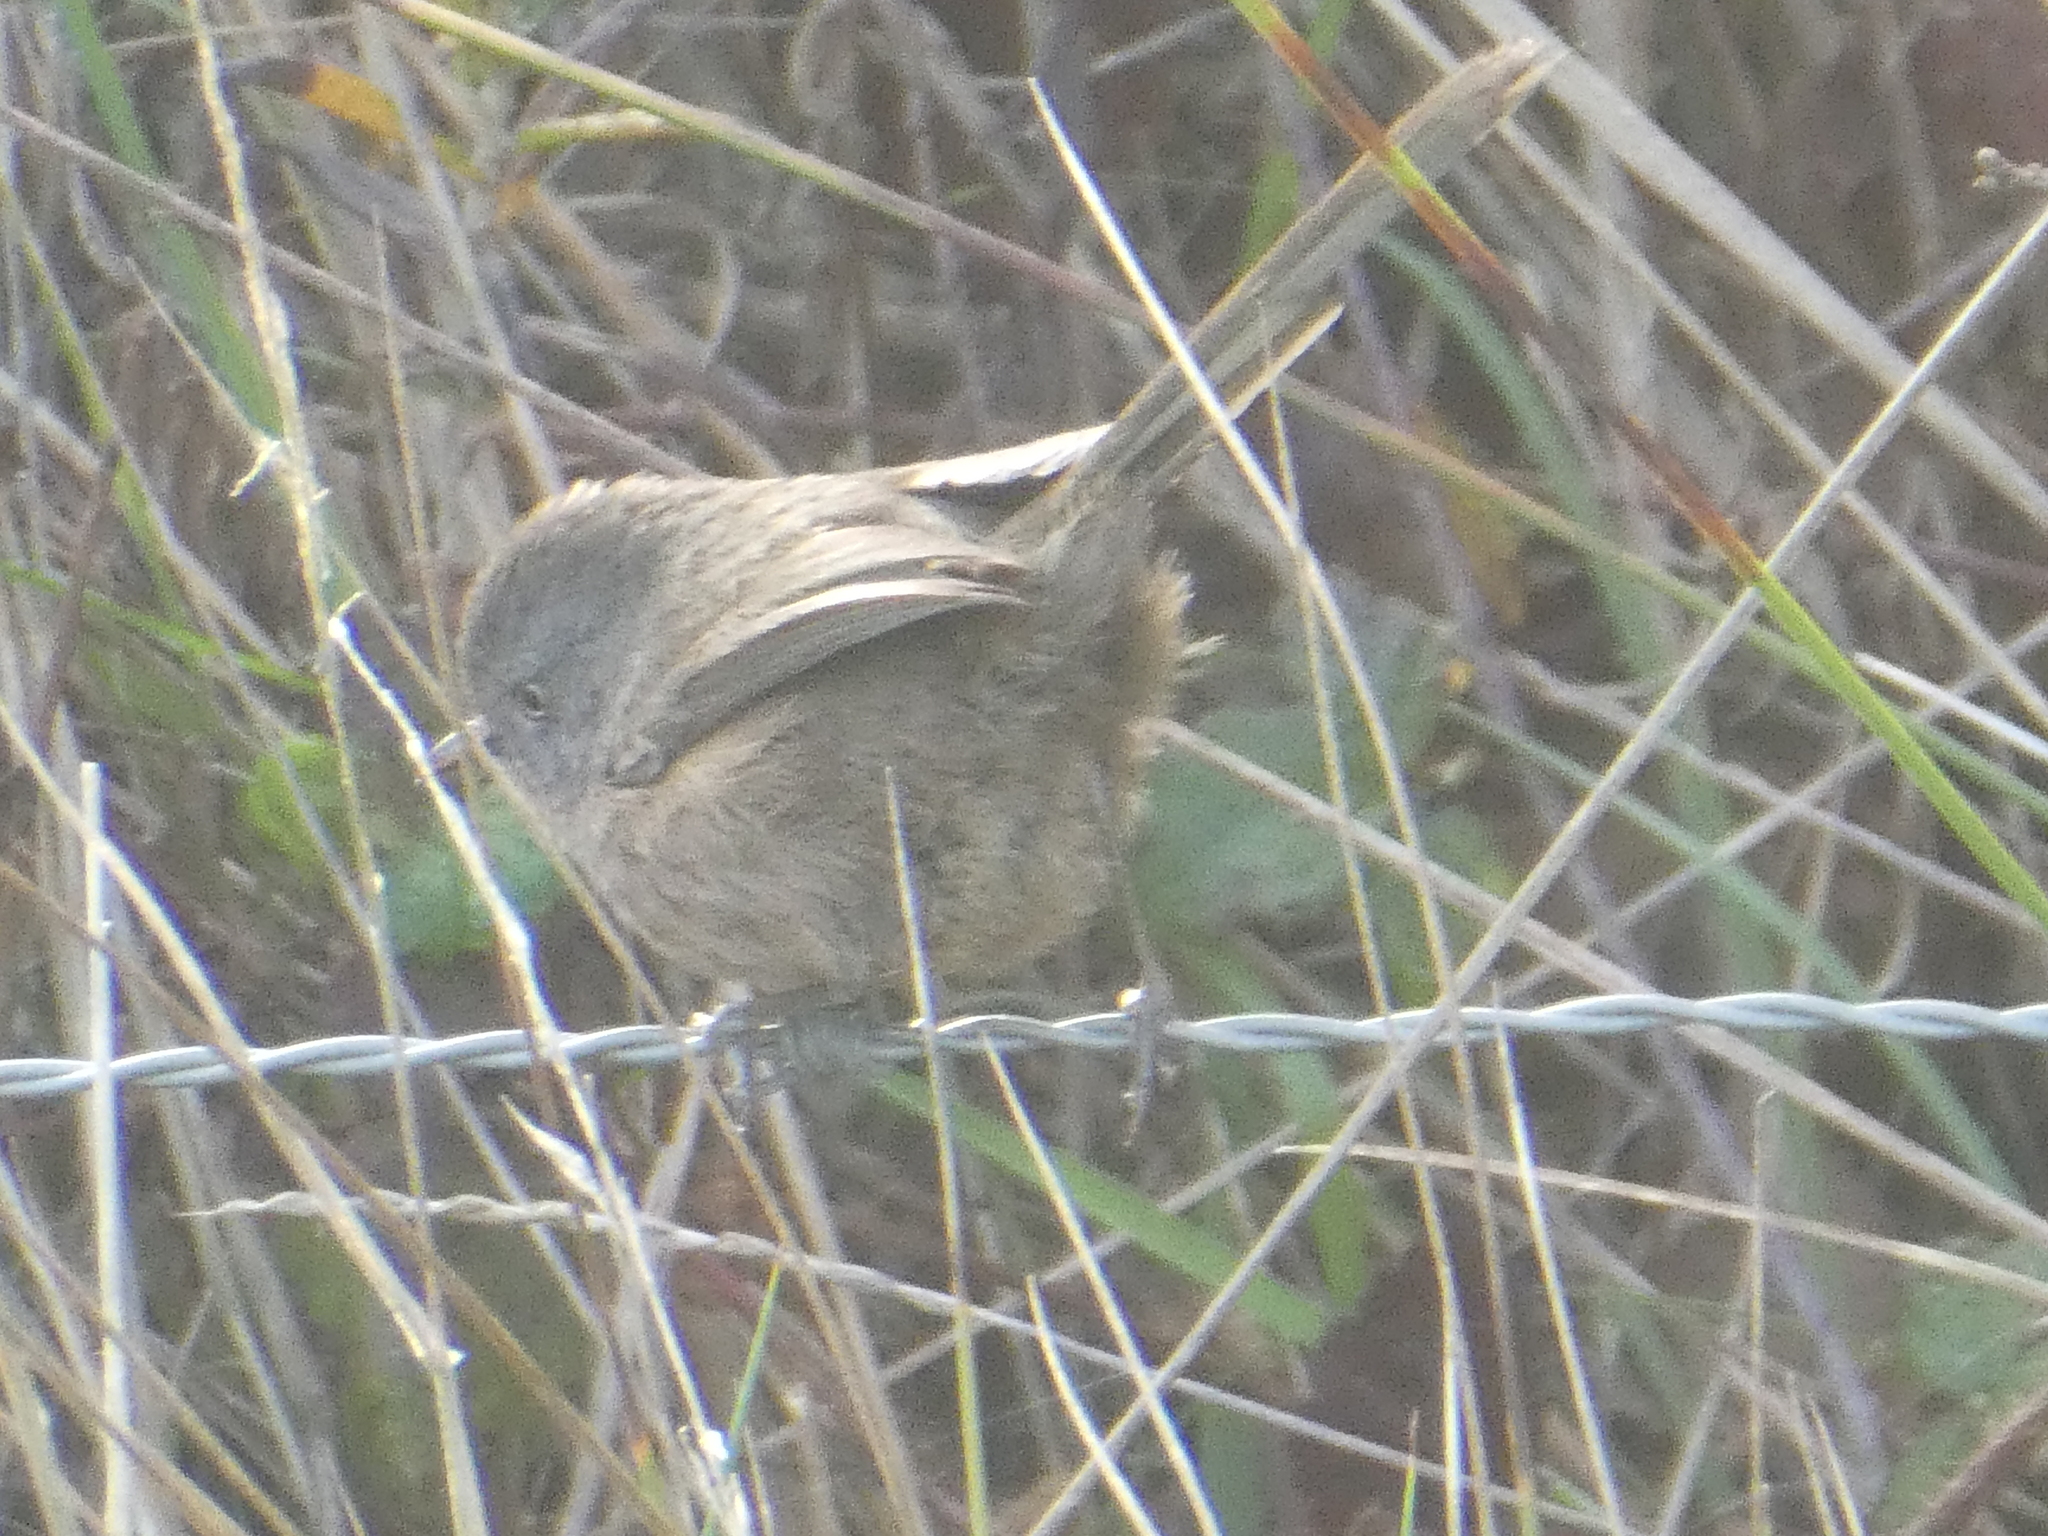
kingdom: Animalia
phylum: Chordata
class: Aves
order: Passeriformes
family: Sylviidae
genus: Chamaea
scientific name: Chamaea fasciata
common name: Wrentit
